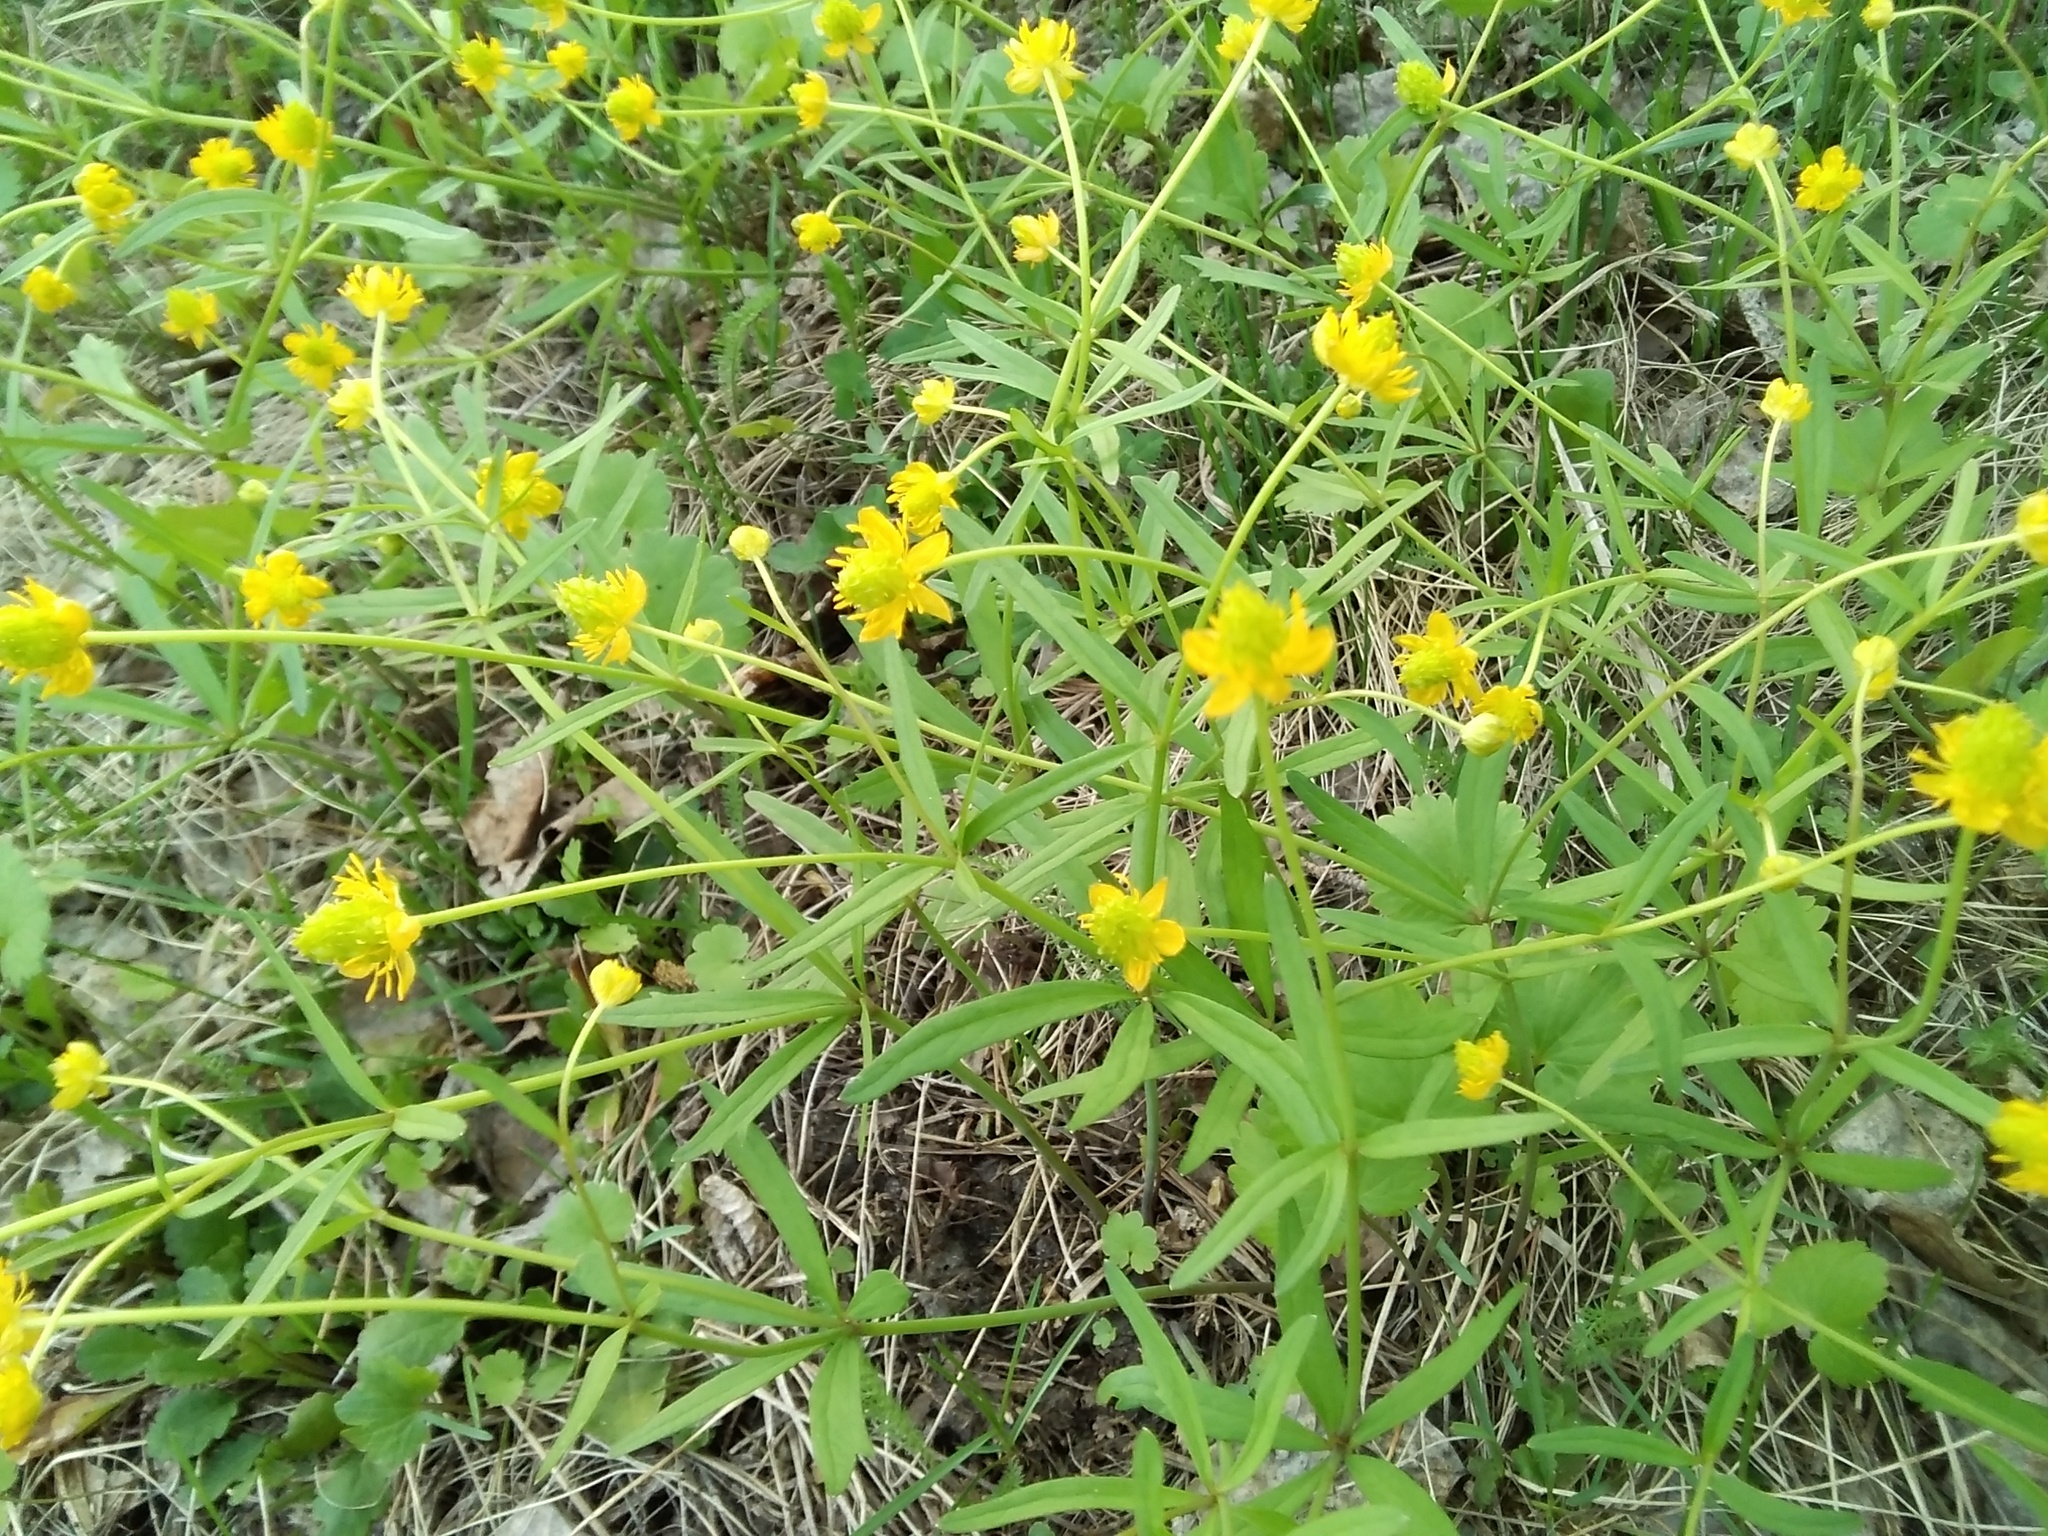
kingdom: Plantae
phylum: Tracheophyta
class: Magnoliopsida
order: Ranunculales
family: Ranunculaceae
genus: Ranunculus
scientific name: Ranunculus monophyllus
